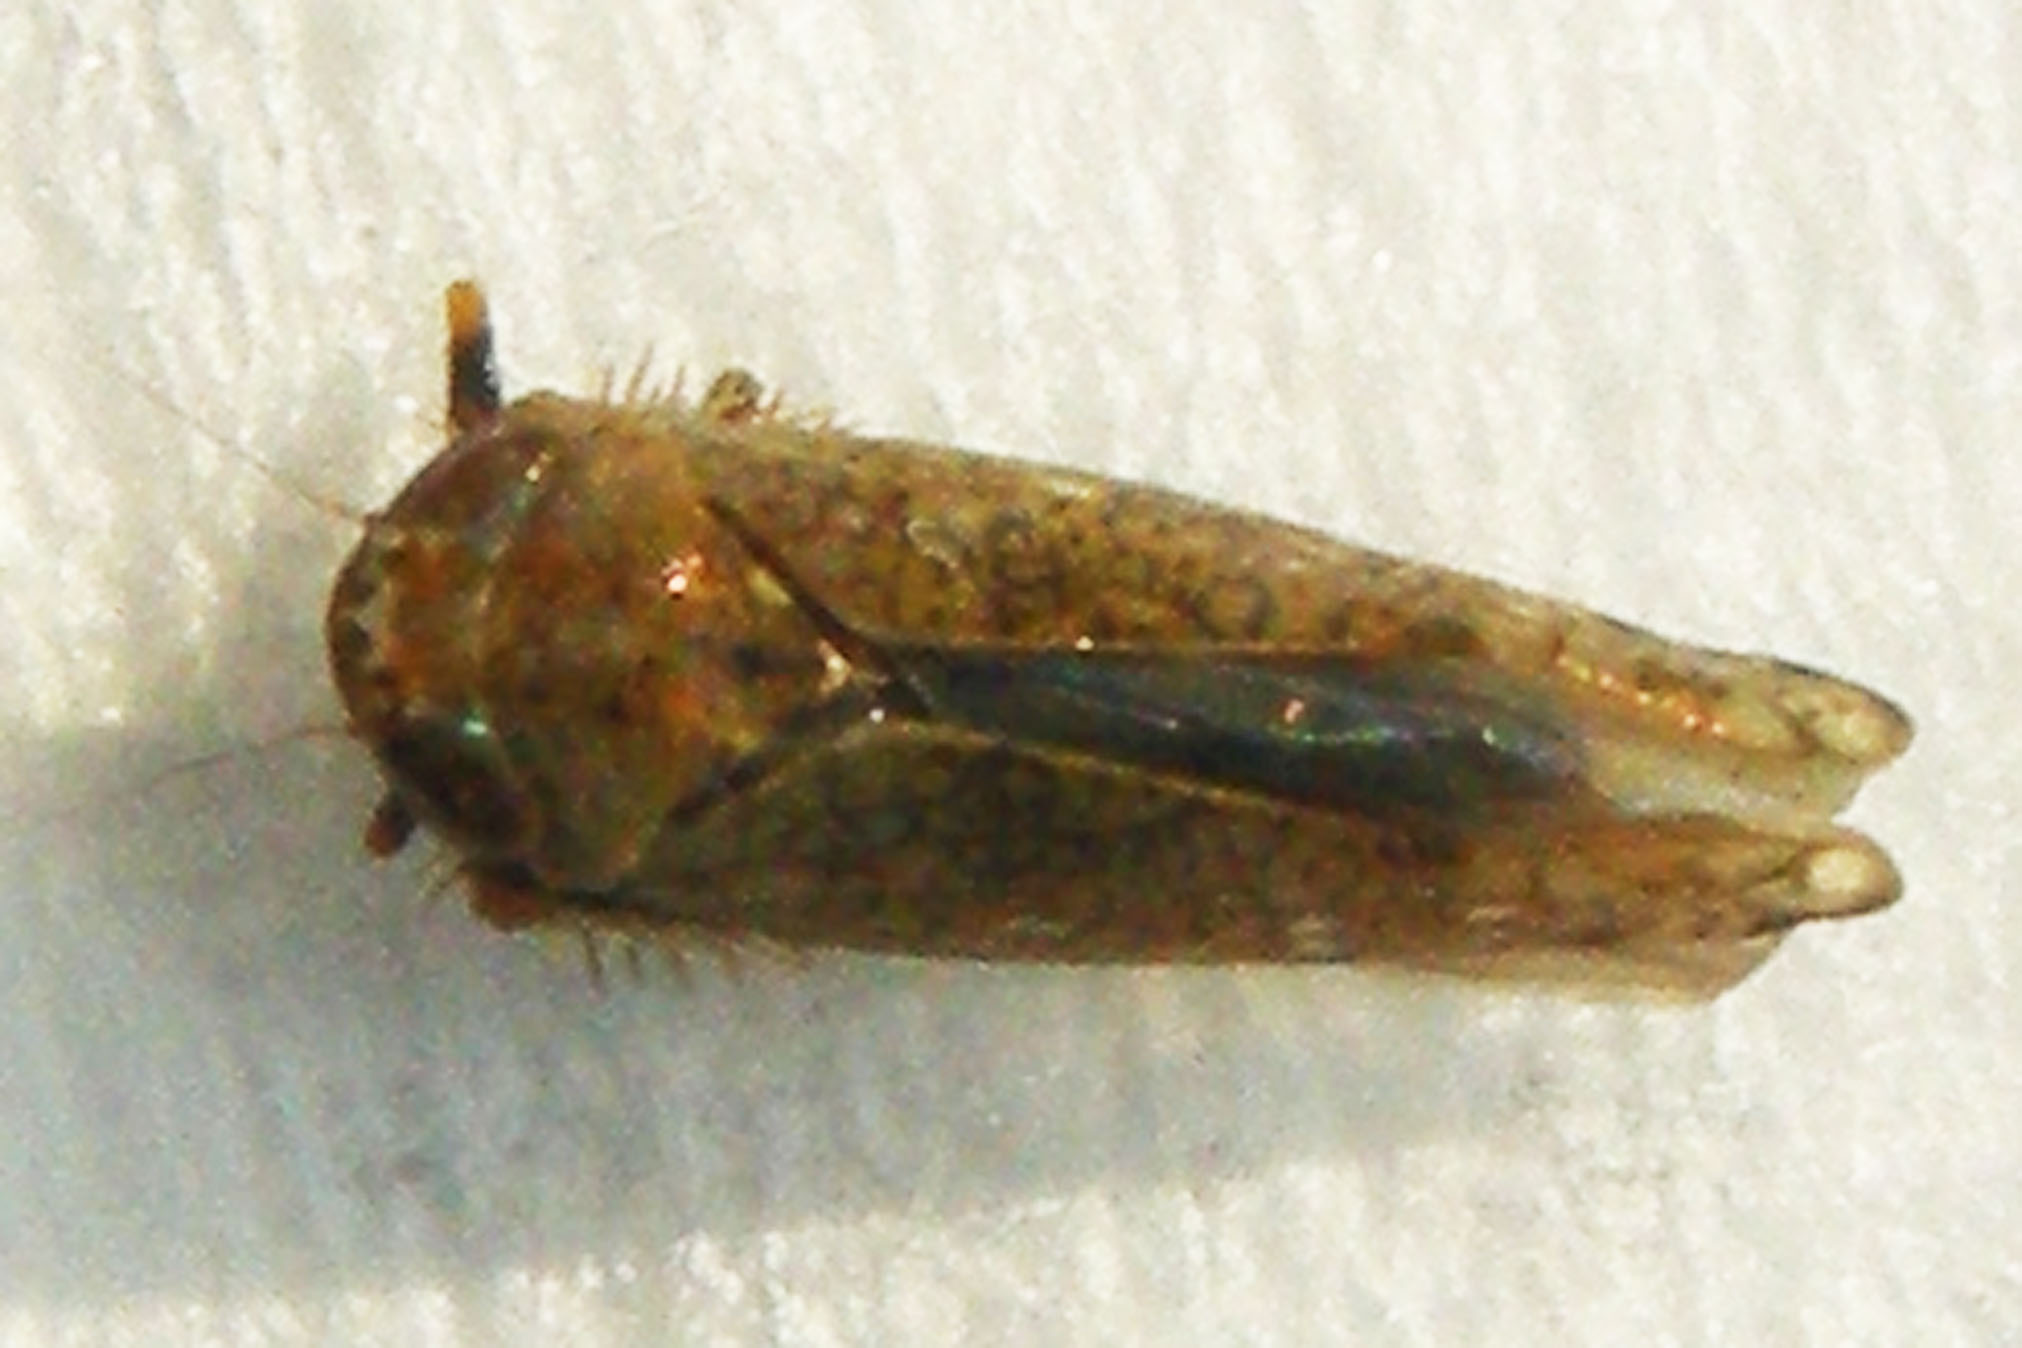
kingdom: Animalia
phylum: Arthropoda
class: Insecta
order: Hemiptera
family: Cicadellidae
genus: Orientus
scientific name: Orientus ishidae
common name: Japanese leafhopper
